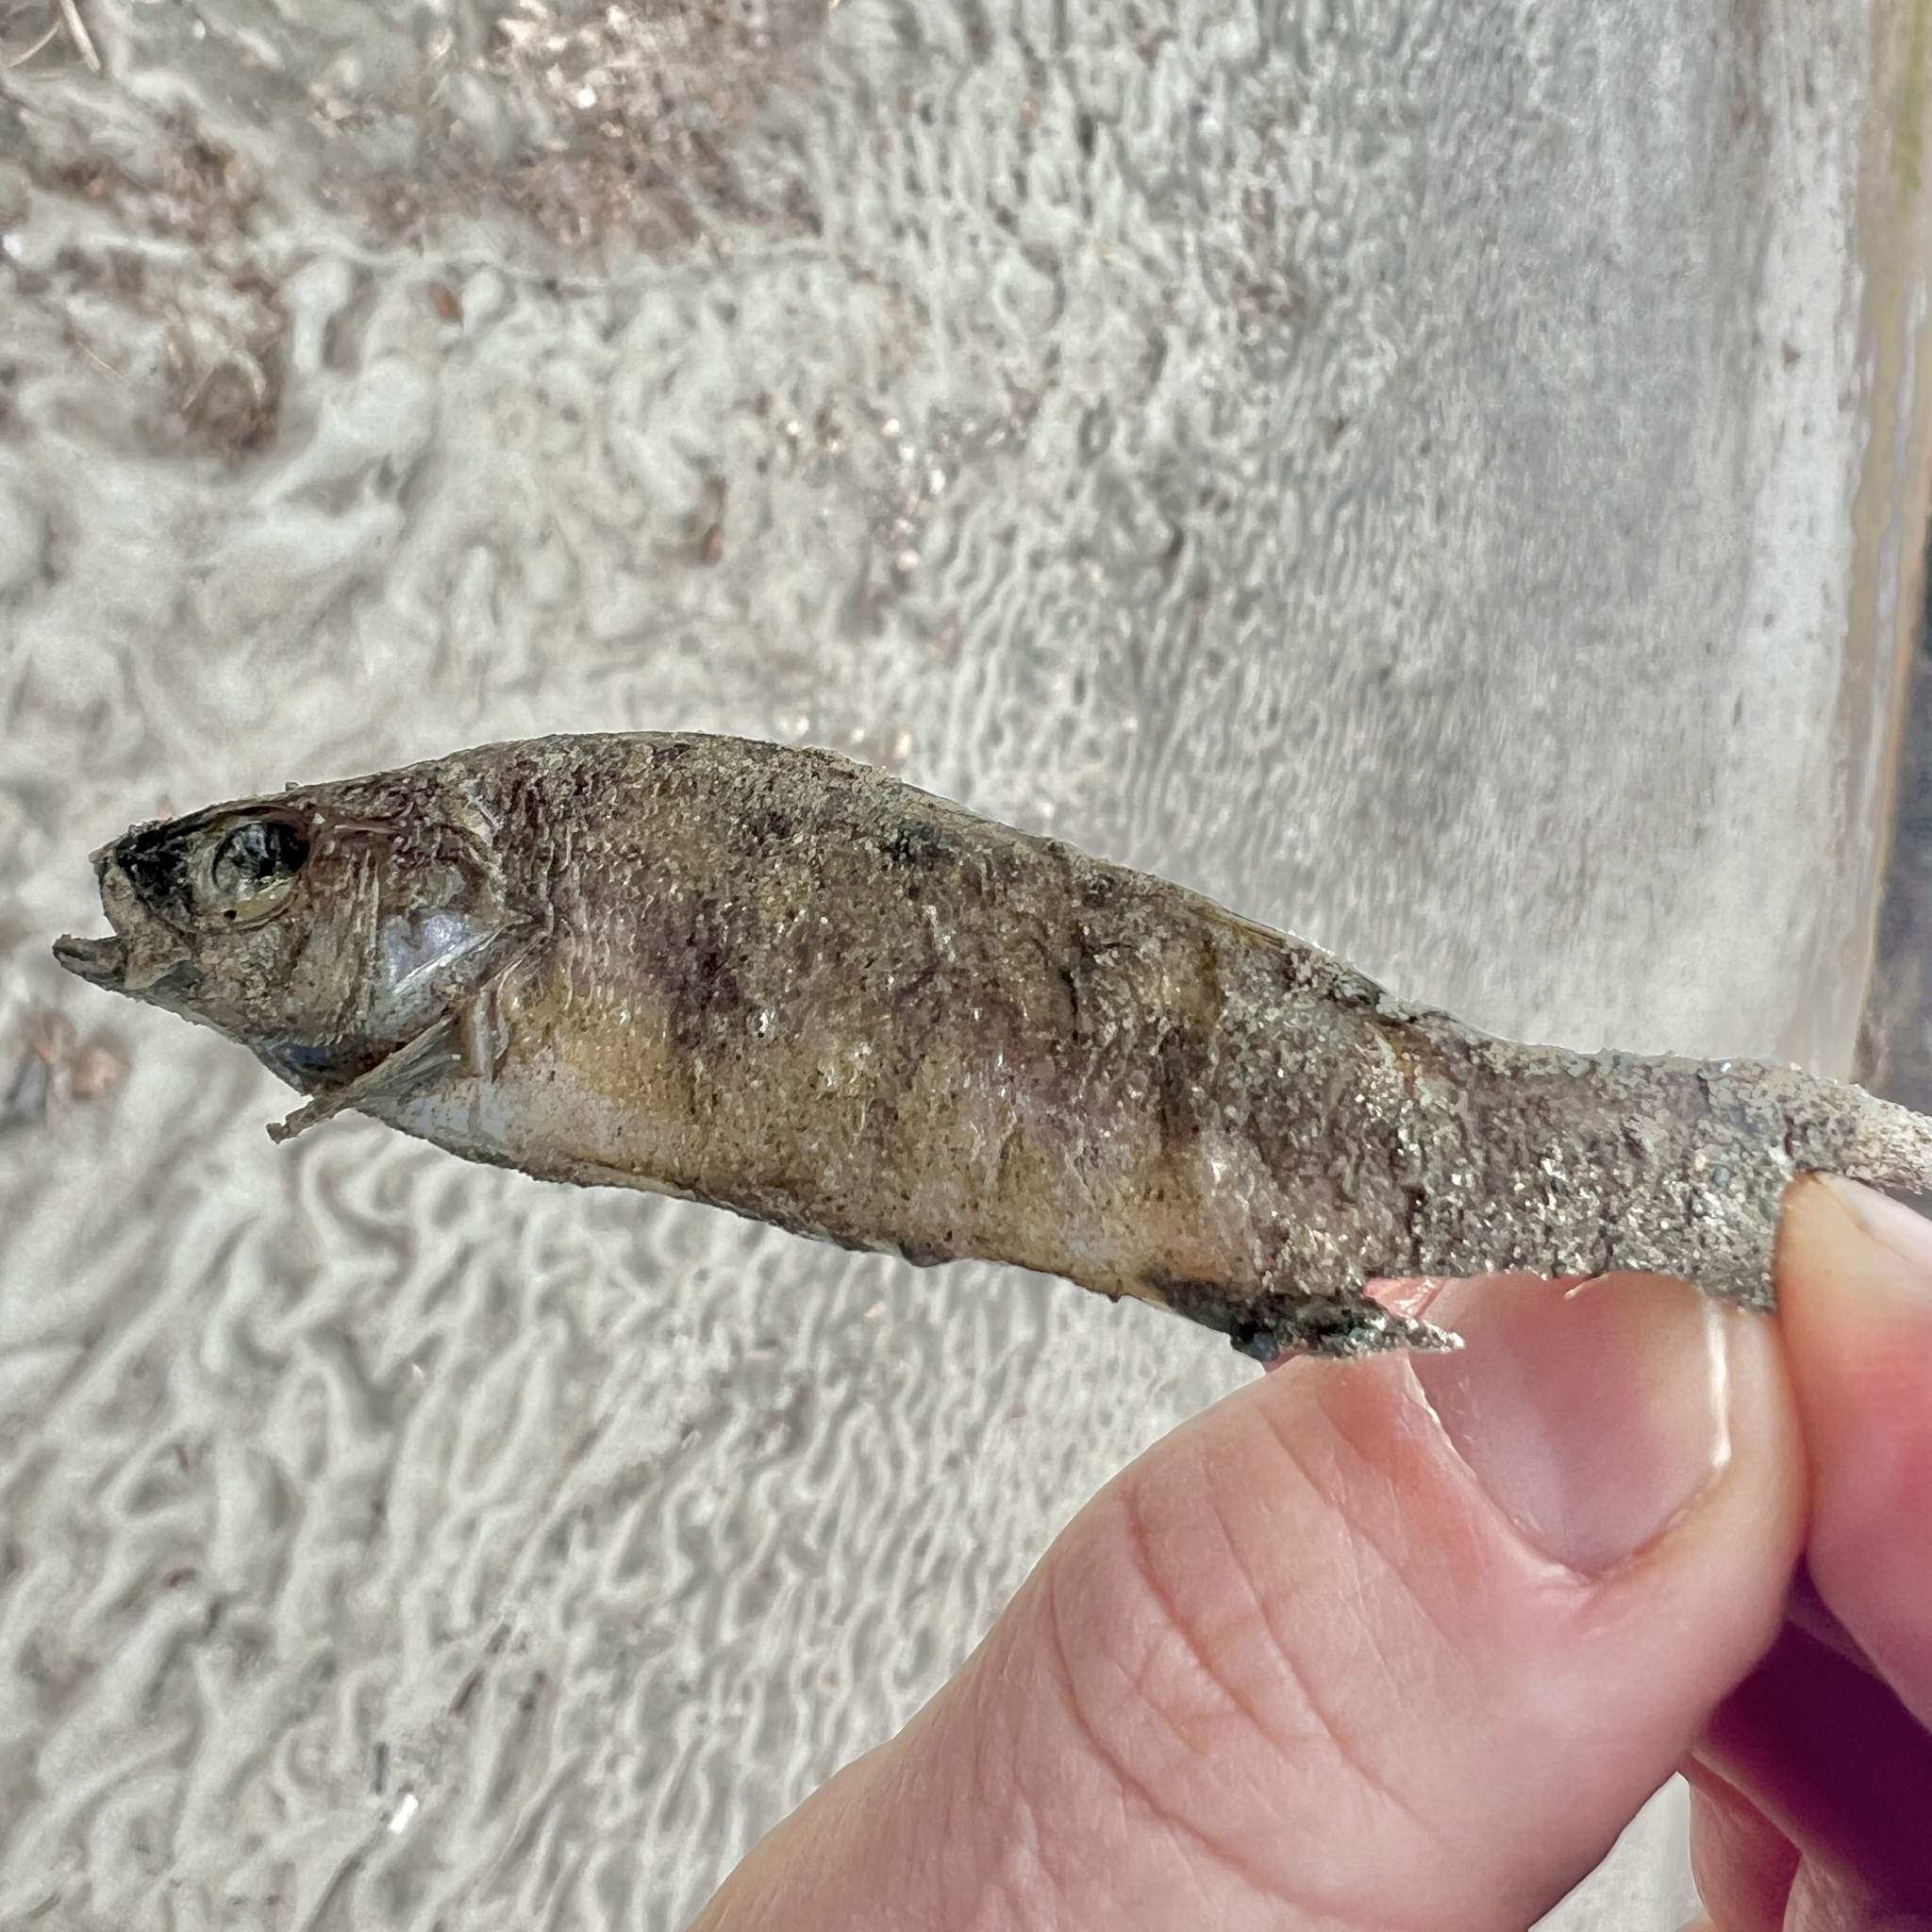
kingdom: Animalia
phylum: Chordata
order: Perciformes
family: Percidae
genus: Perca
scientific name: Perca flavescens
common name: Yellow perch
